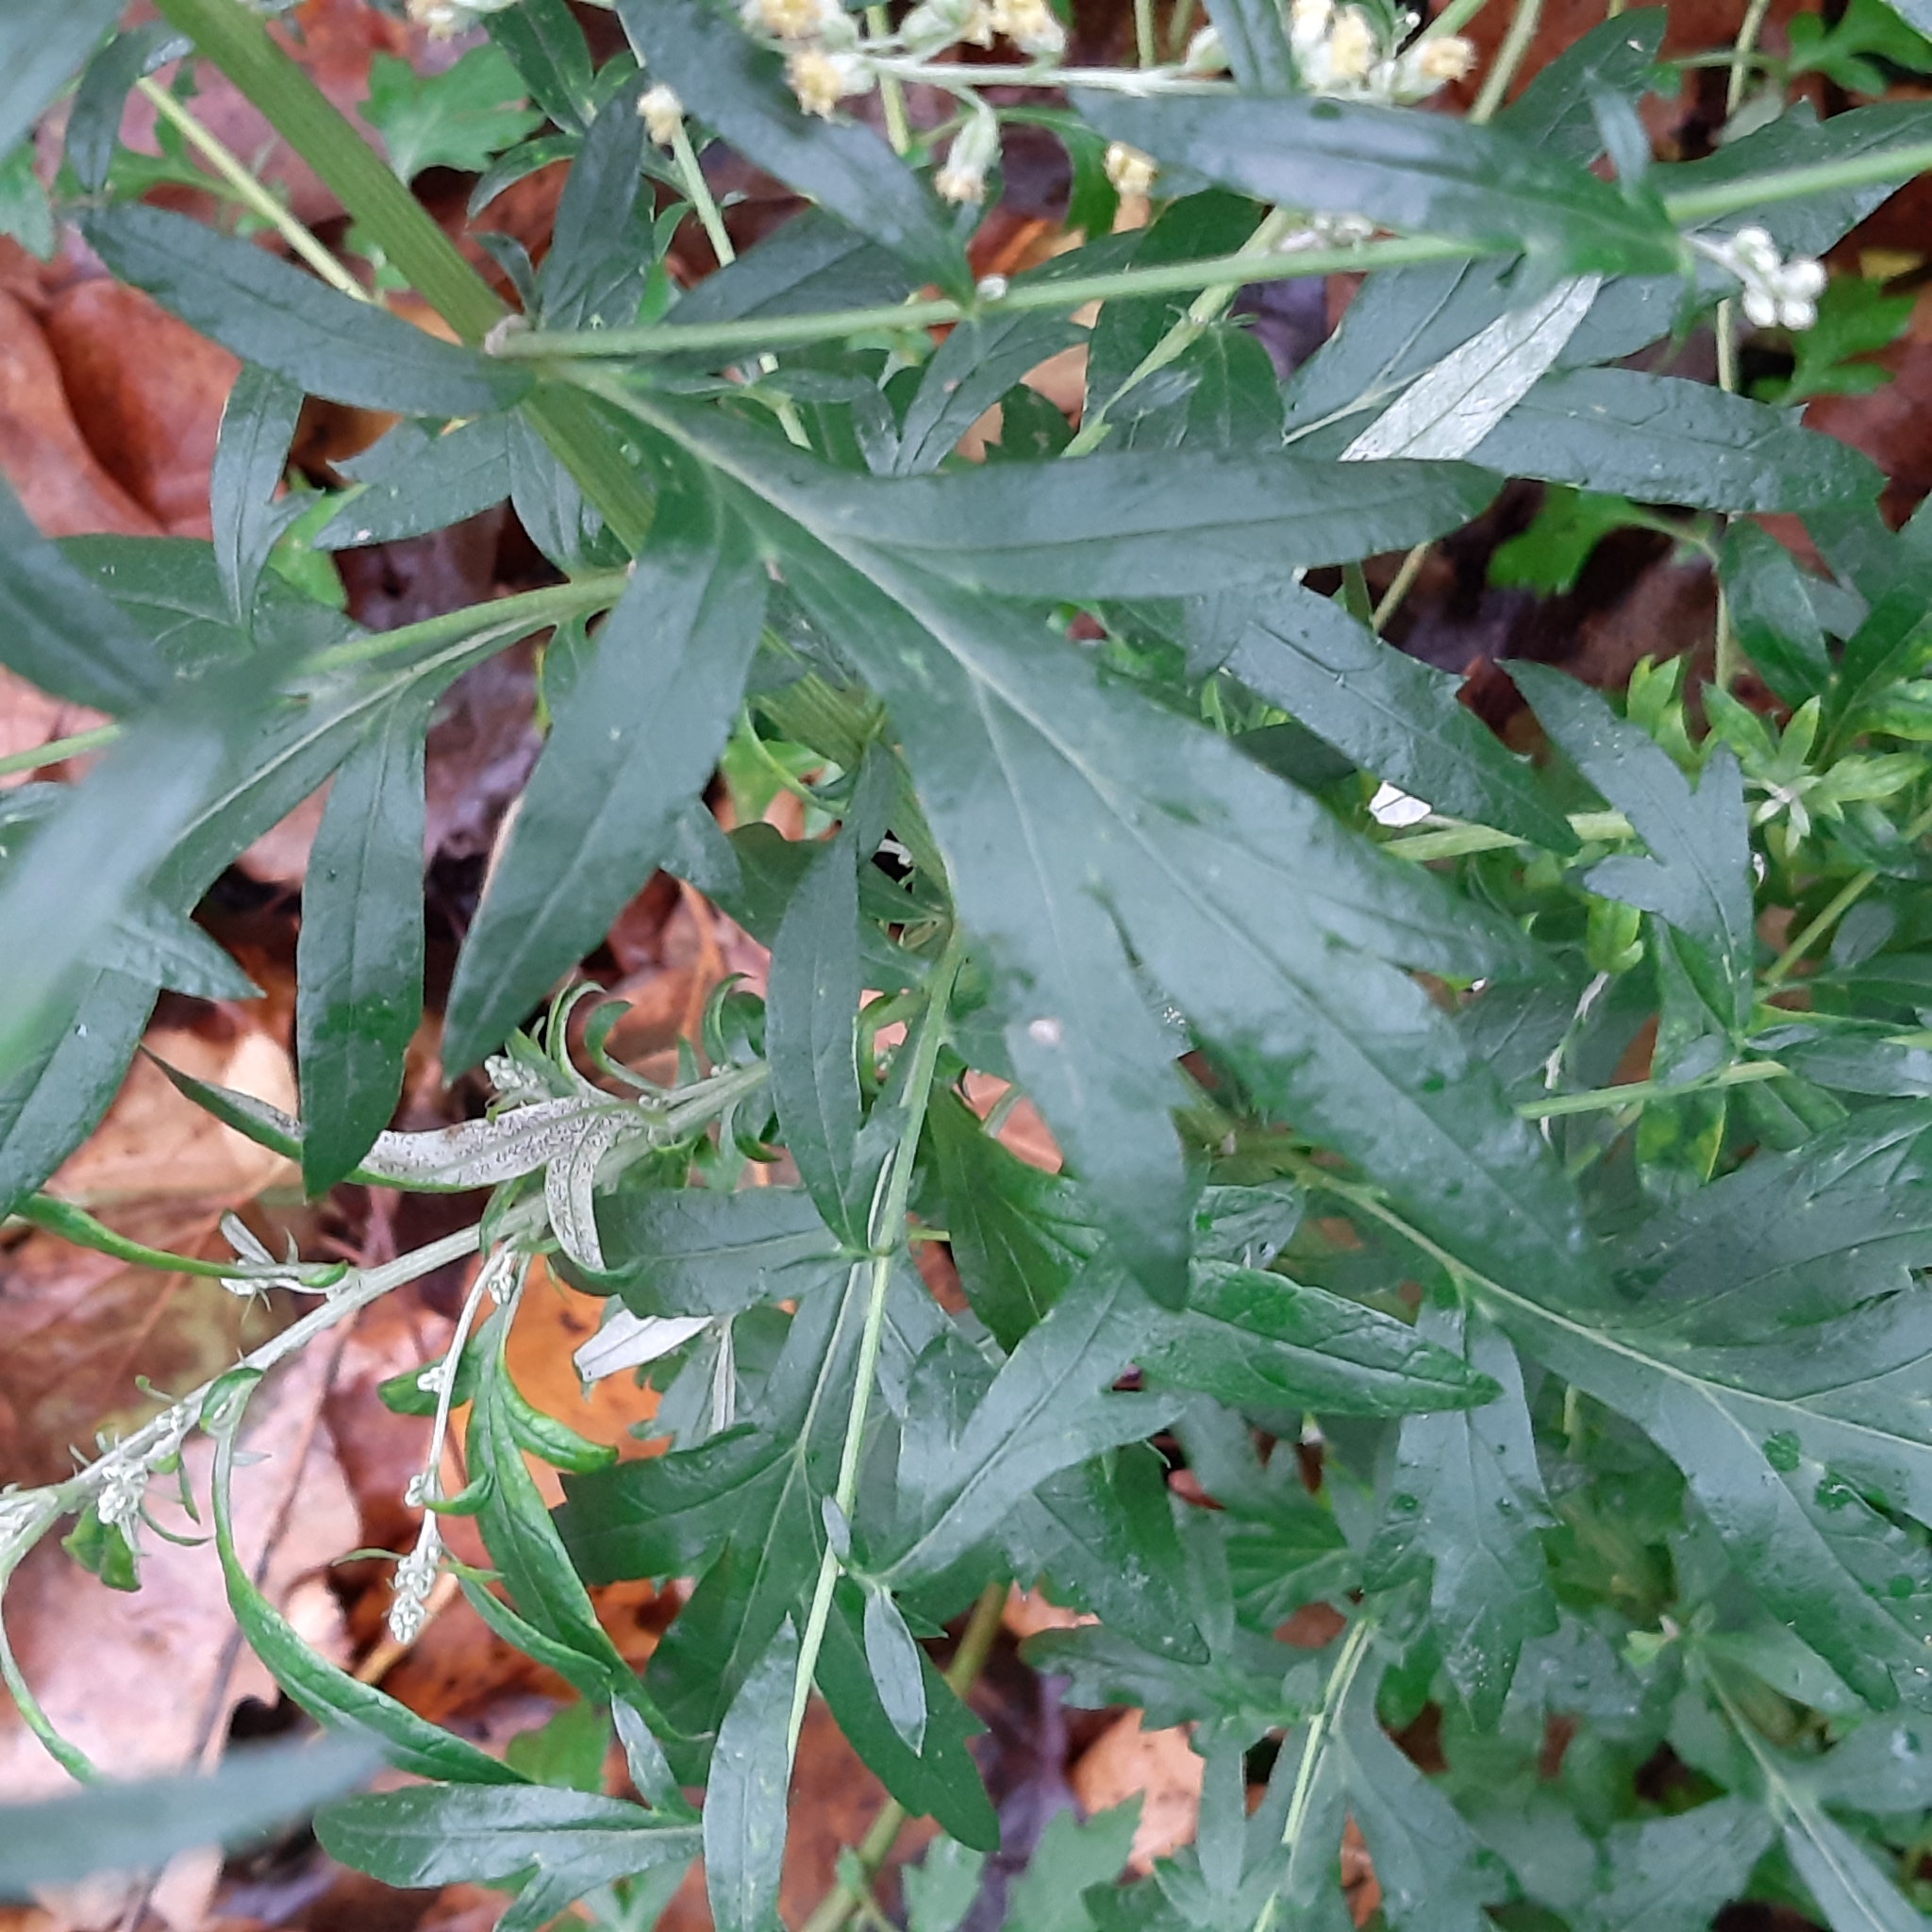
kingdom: Plantae
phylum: Tracheophyta
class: Magnoliopsida
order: Asterales
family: Asteraceae
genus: Artemisia
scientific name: Artemisia vulgaris
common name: Mugwort
